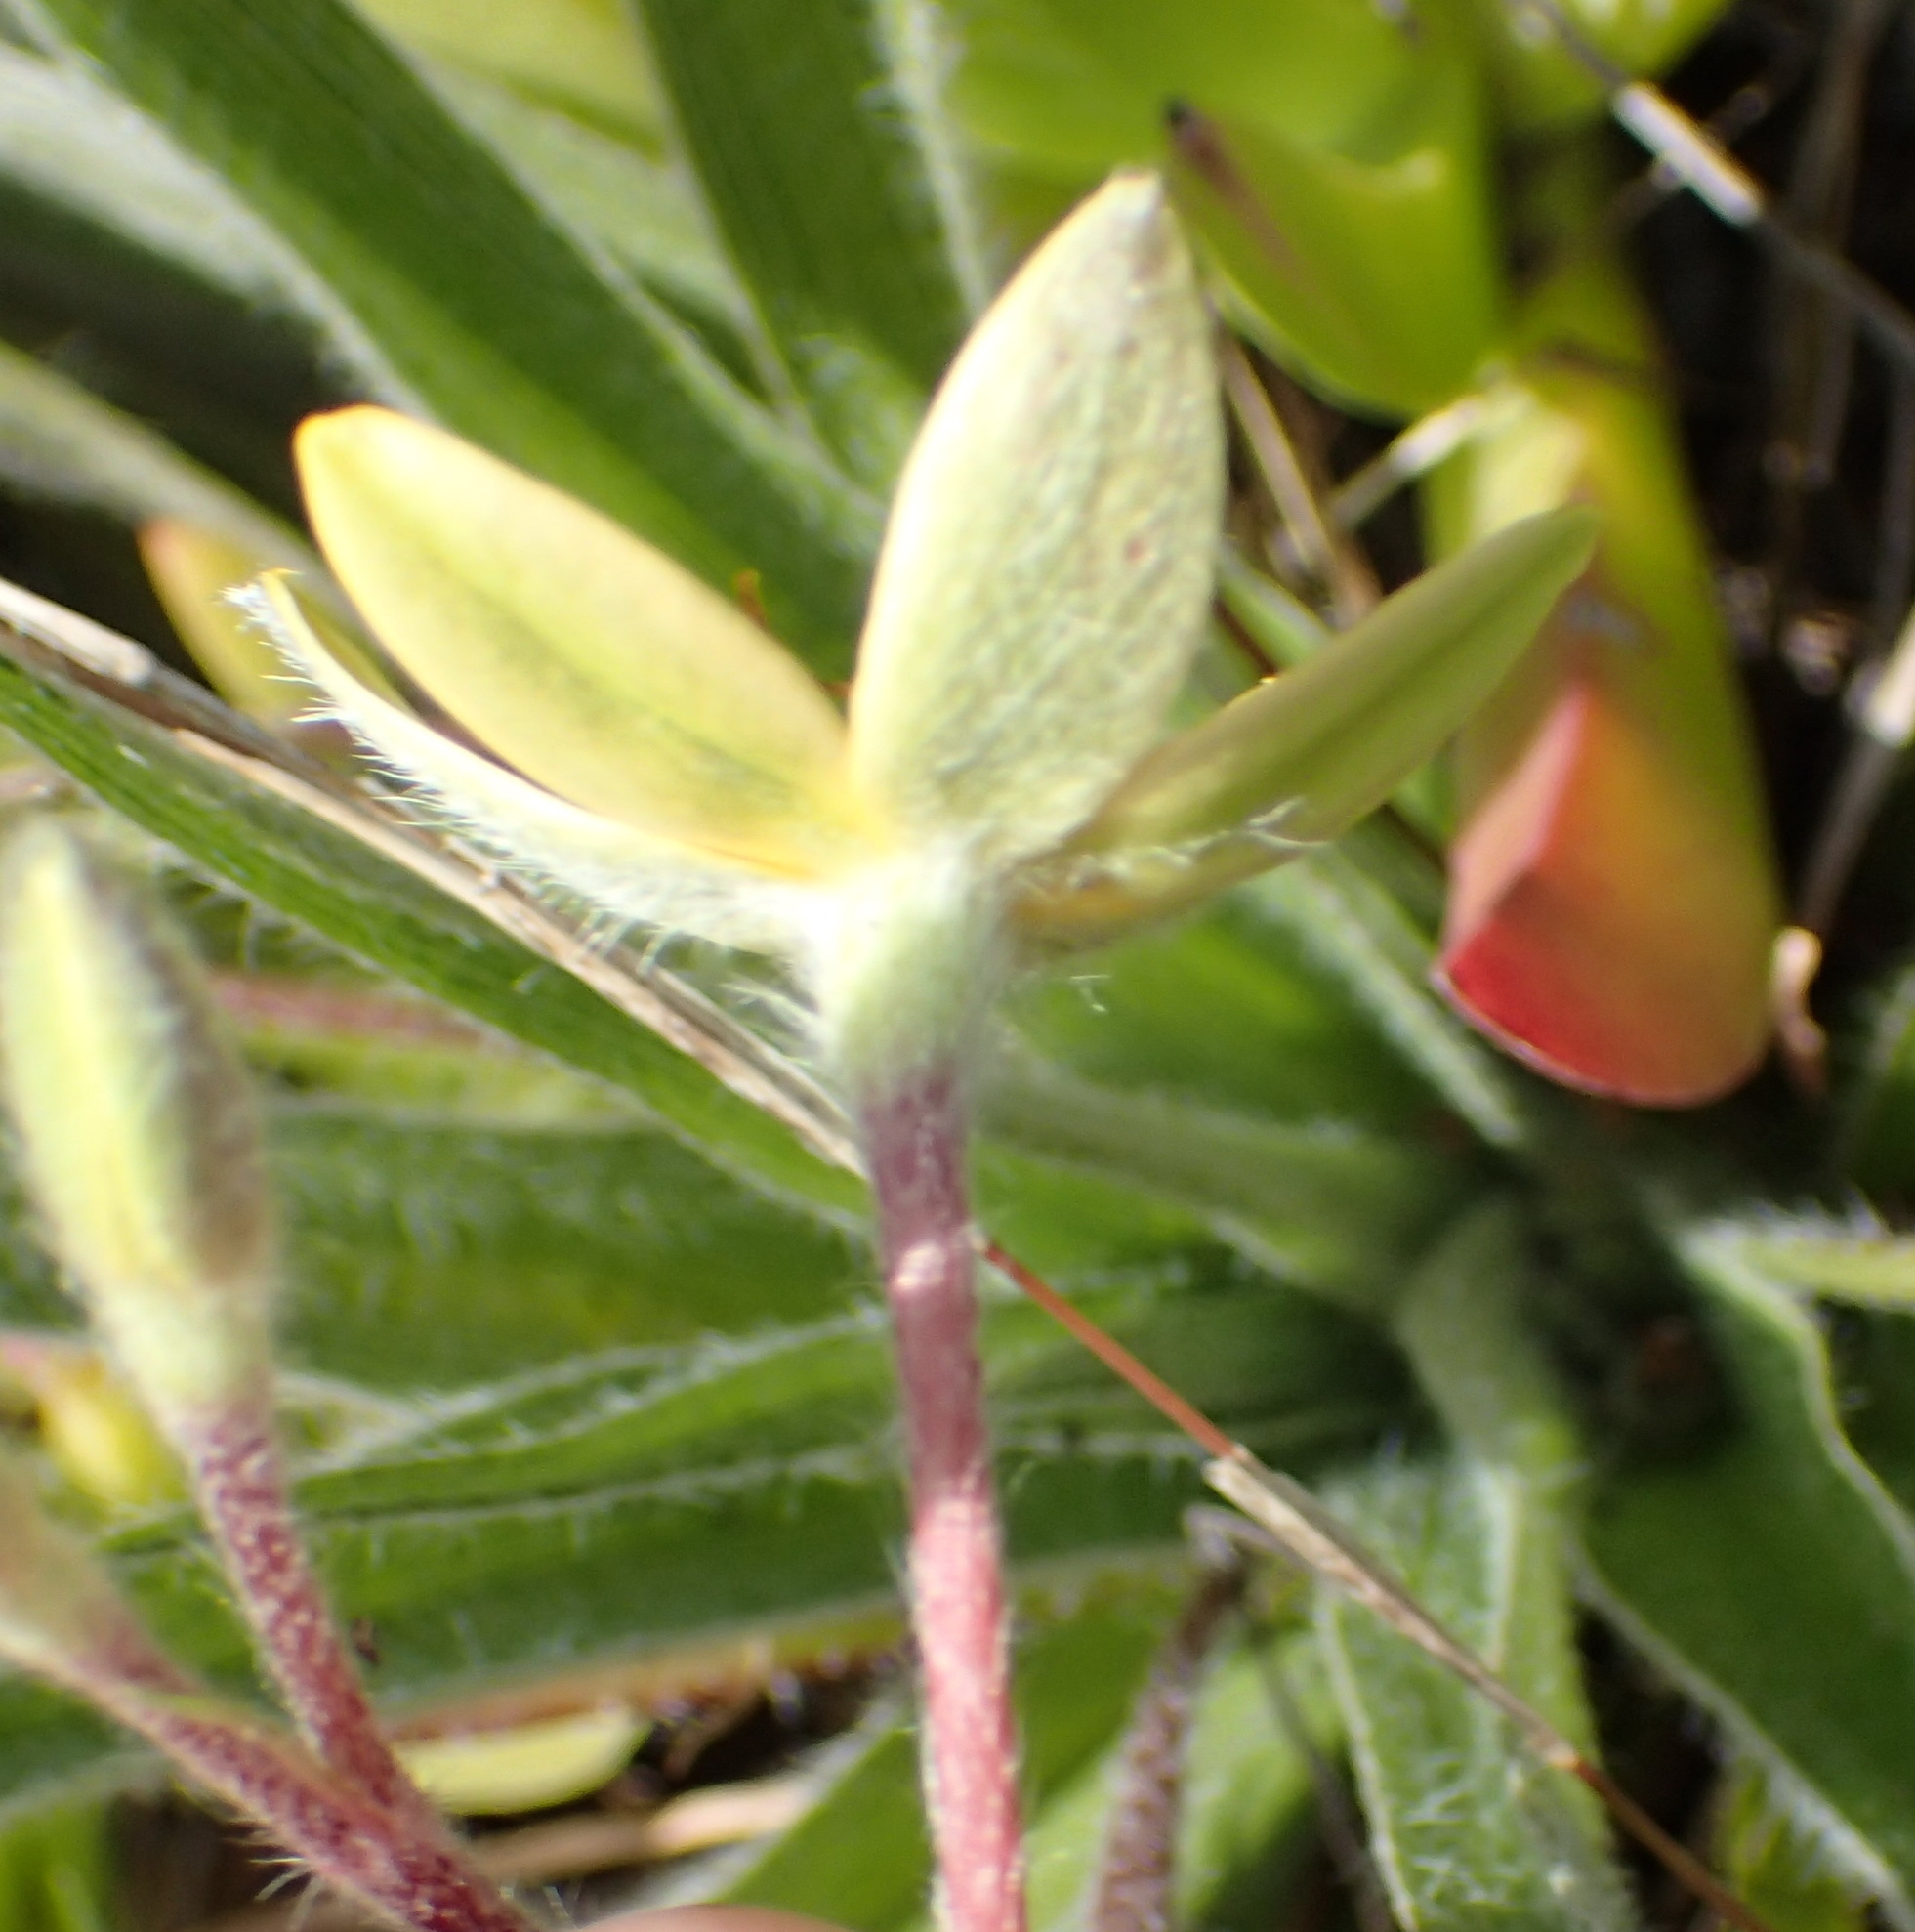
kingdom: Plantae
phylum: Tracheophyta
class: Liliopsida
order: Asparagales
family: Hypoxidaceae
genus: Hypoxis
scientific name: Hypoxis villosa
